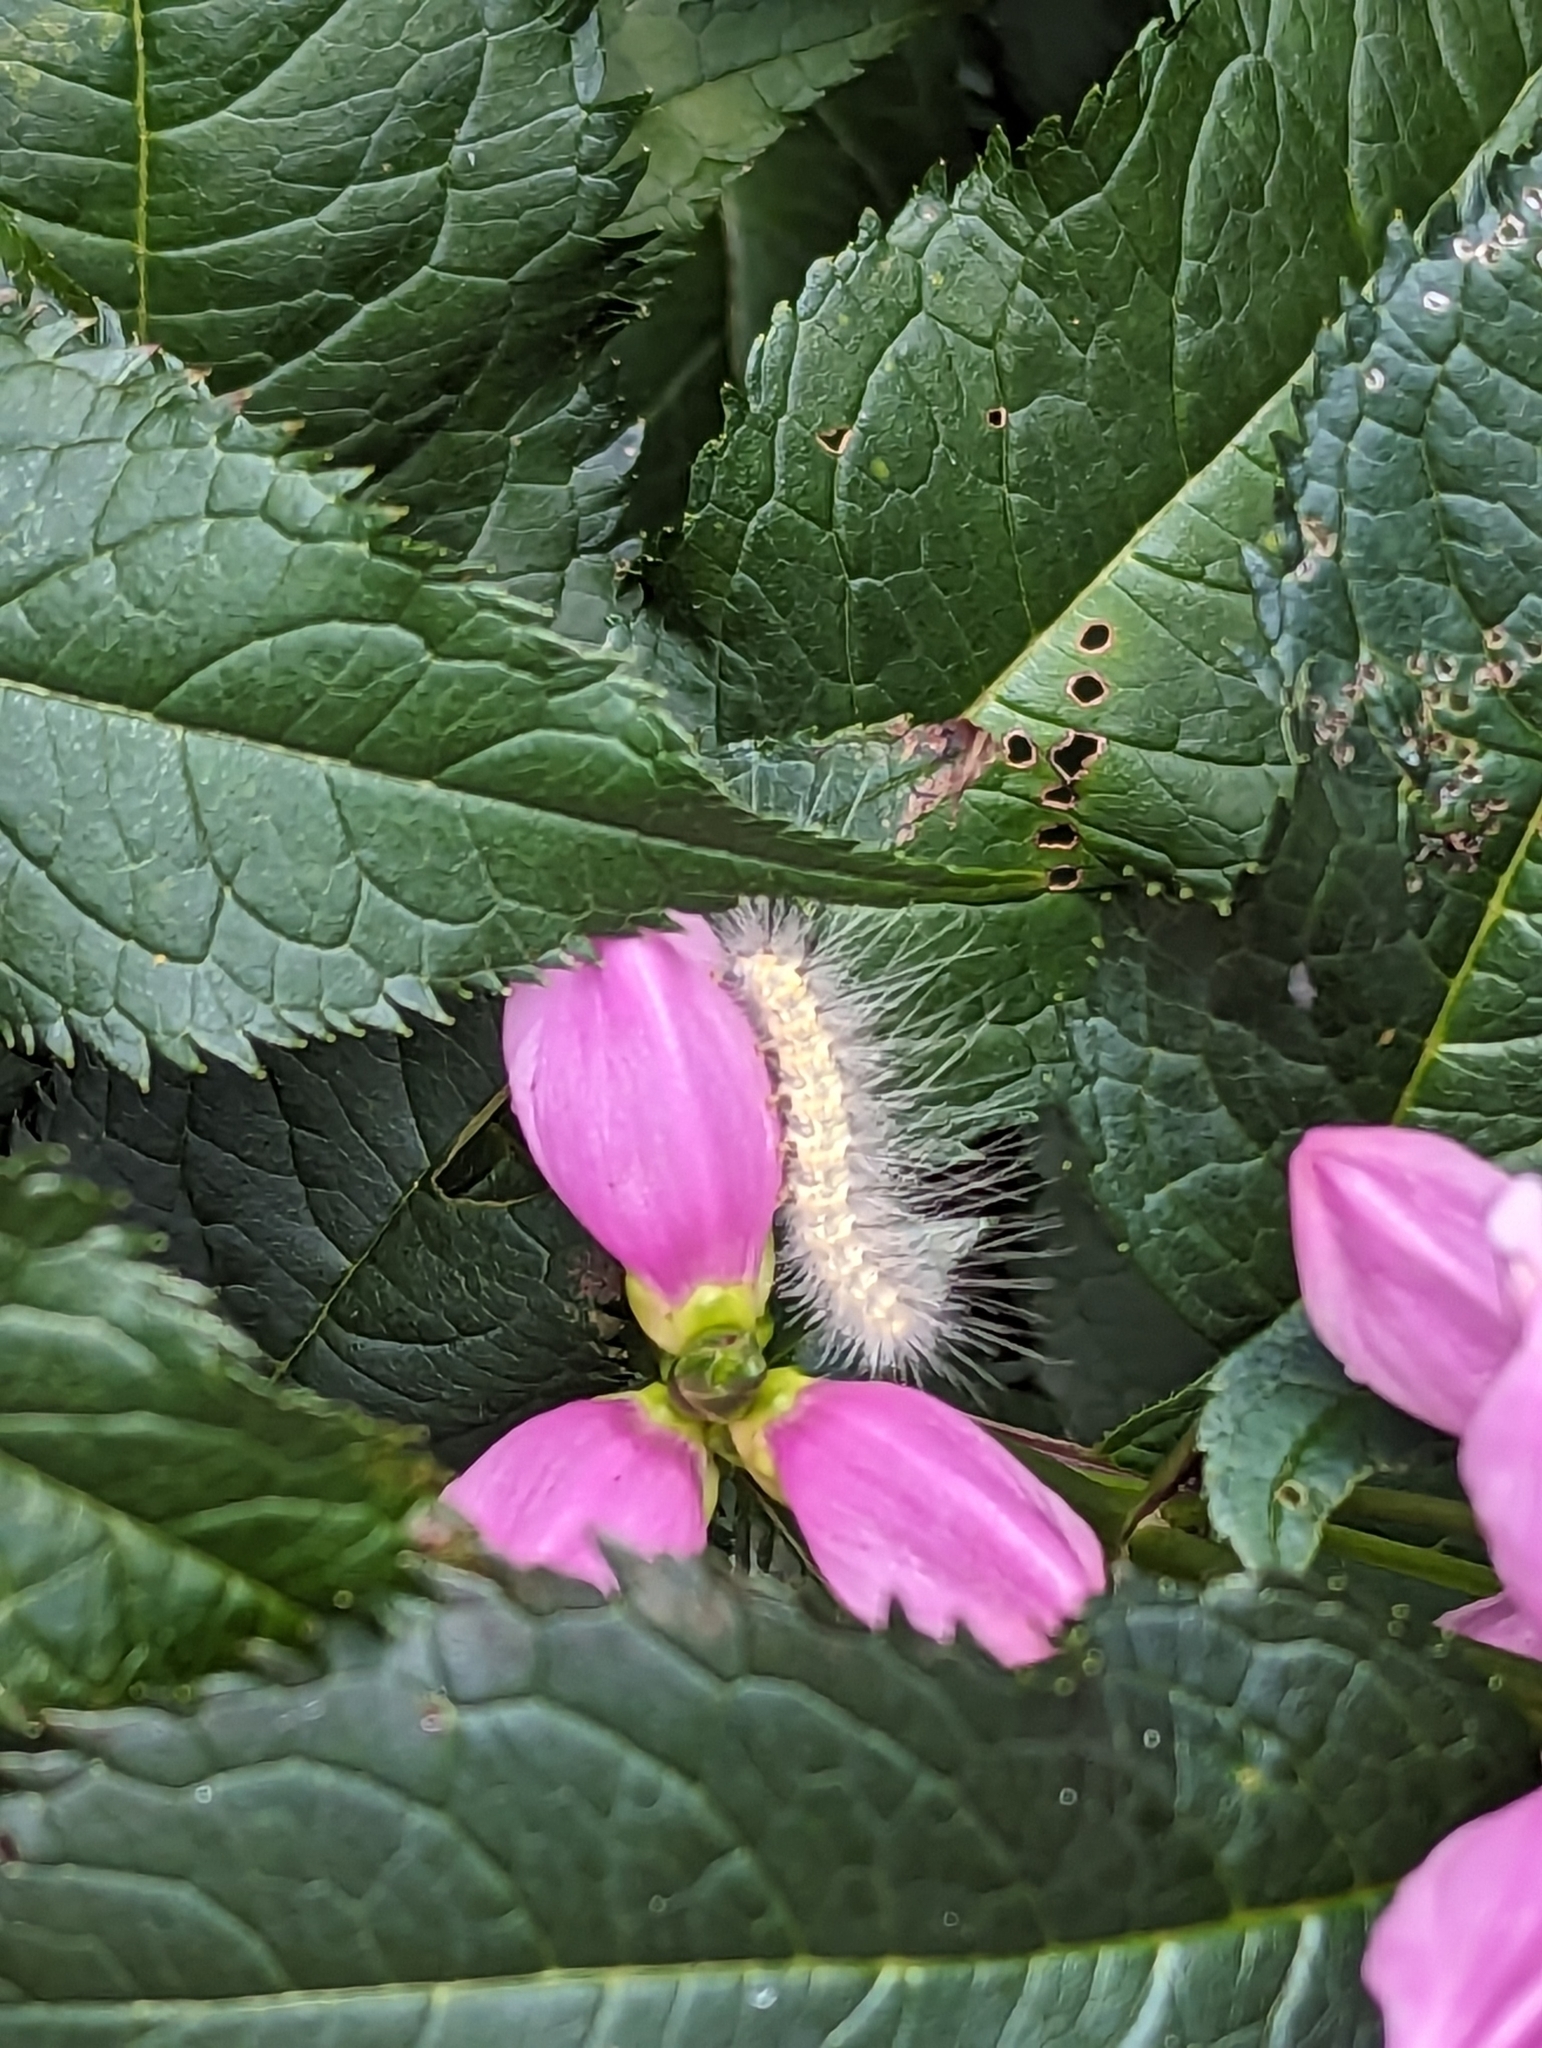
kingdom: Animalia
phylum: Arthropoda
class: Insecta
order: Lepidoptera
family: Erebidae
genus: Hyphantria
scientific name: Hyphantria cunea
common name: American white moth
